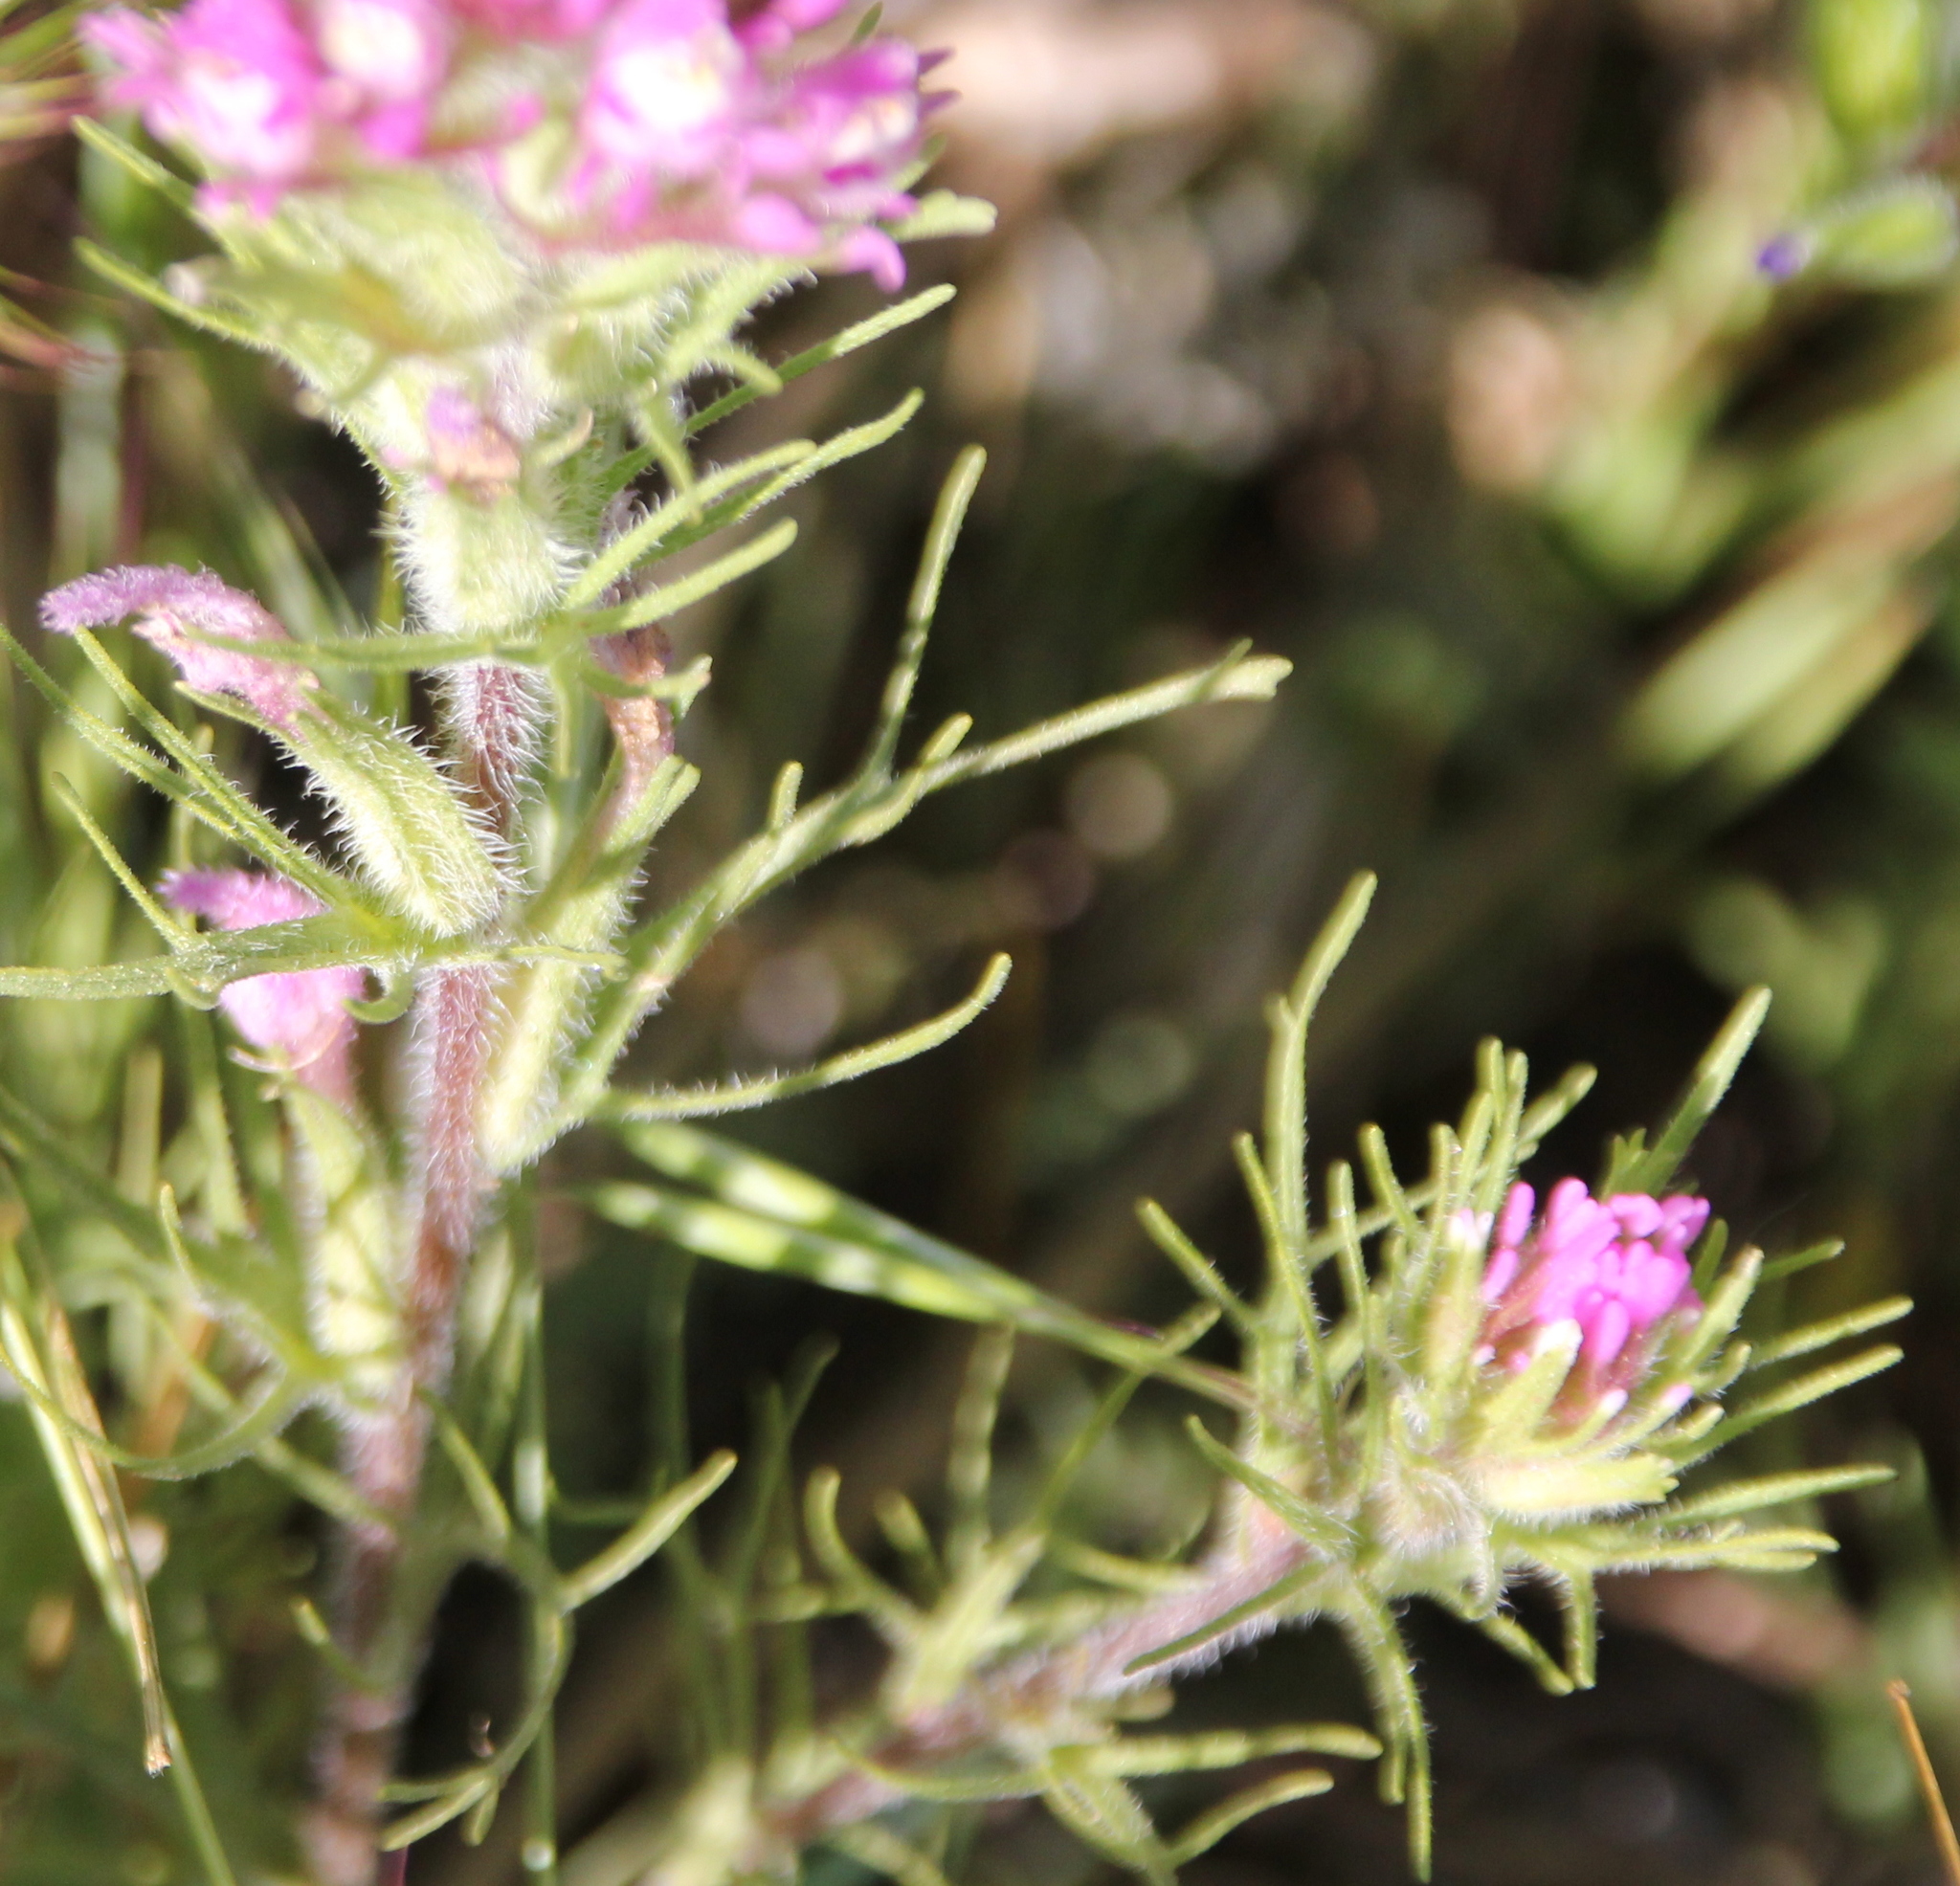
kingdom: Plantae
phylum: Tracheophyta
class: Magnoliopsida
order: Lamiales
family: Orobanchaceae
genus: Castilleja
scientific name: Castilleja exserta
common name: Purple owl-clover
